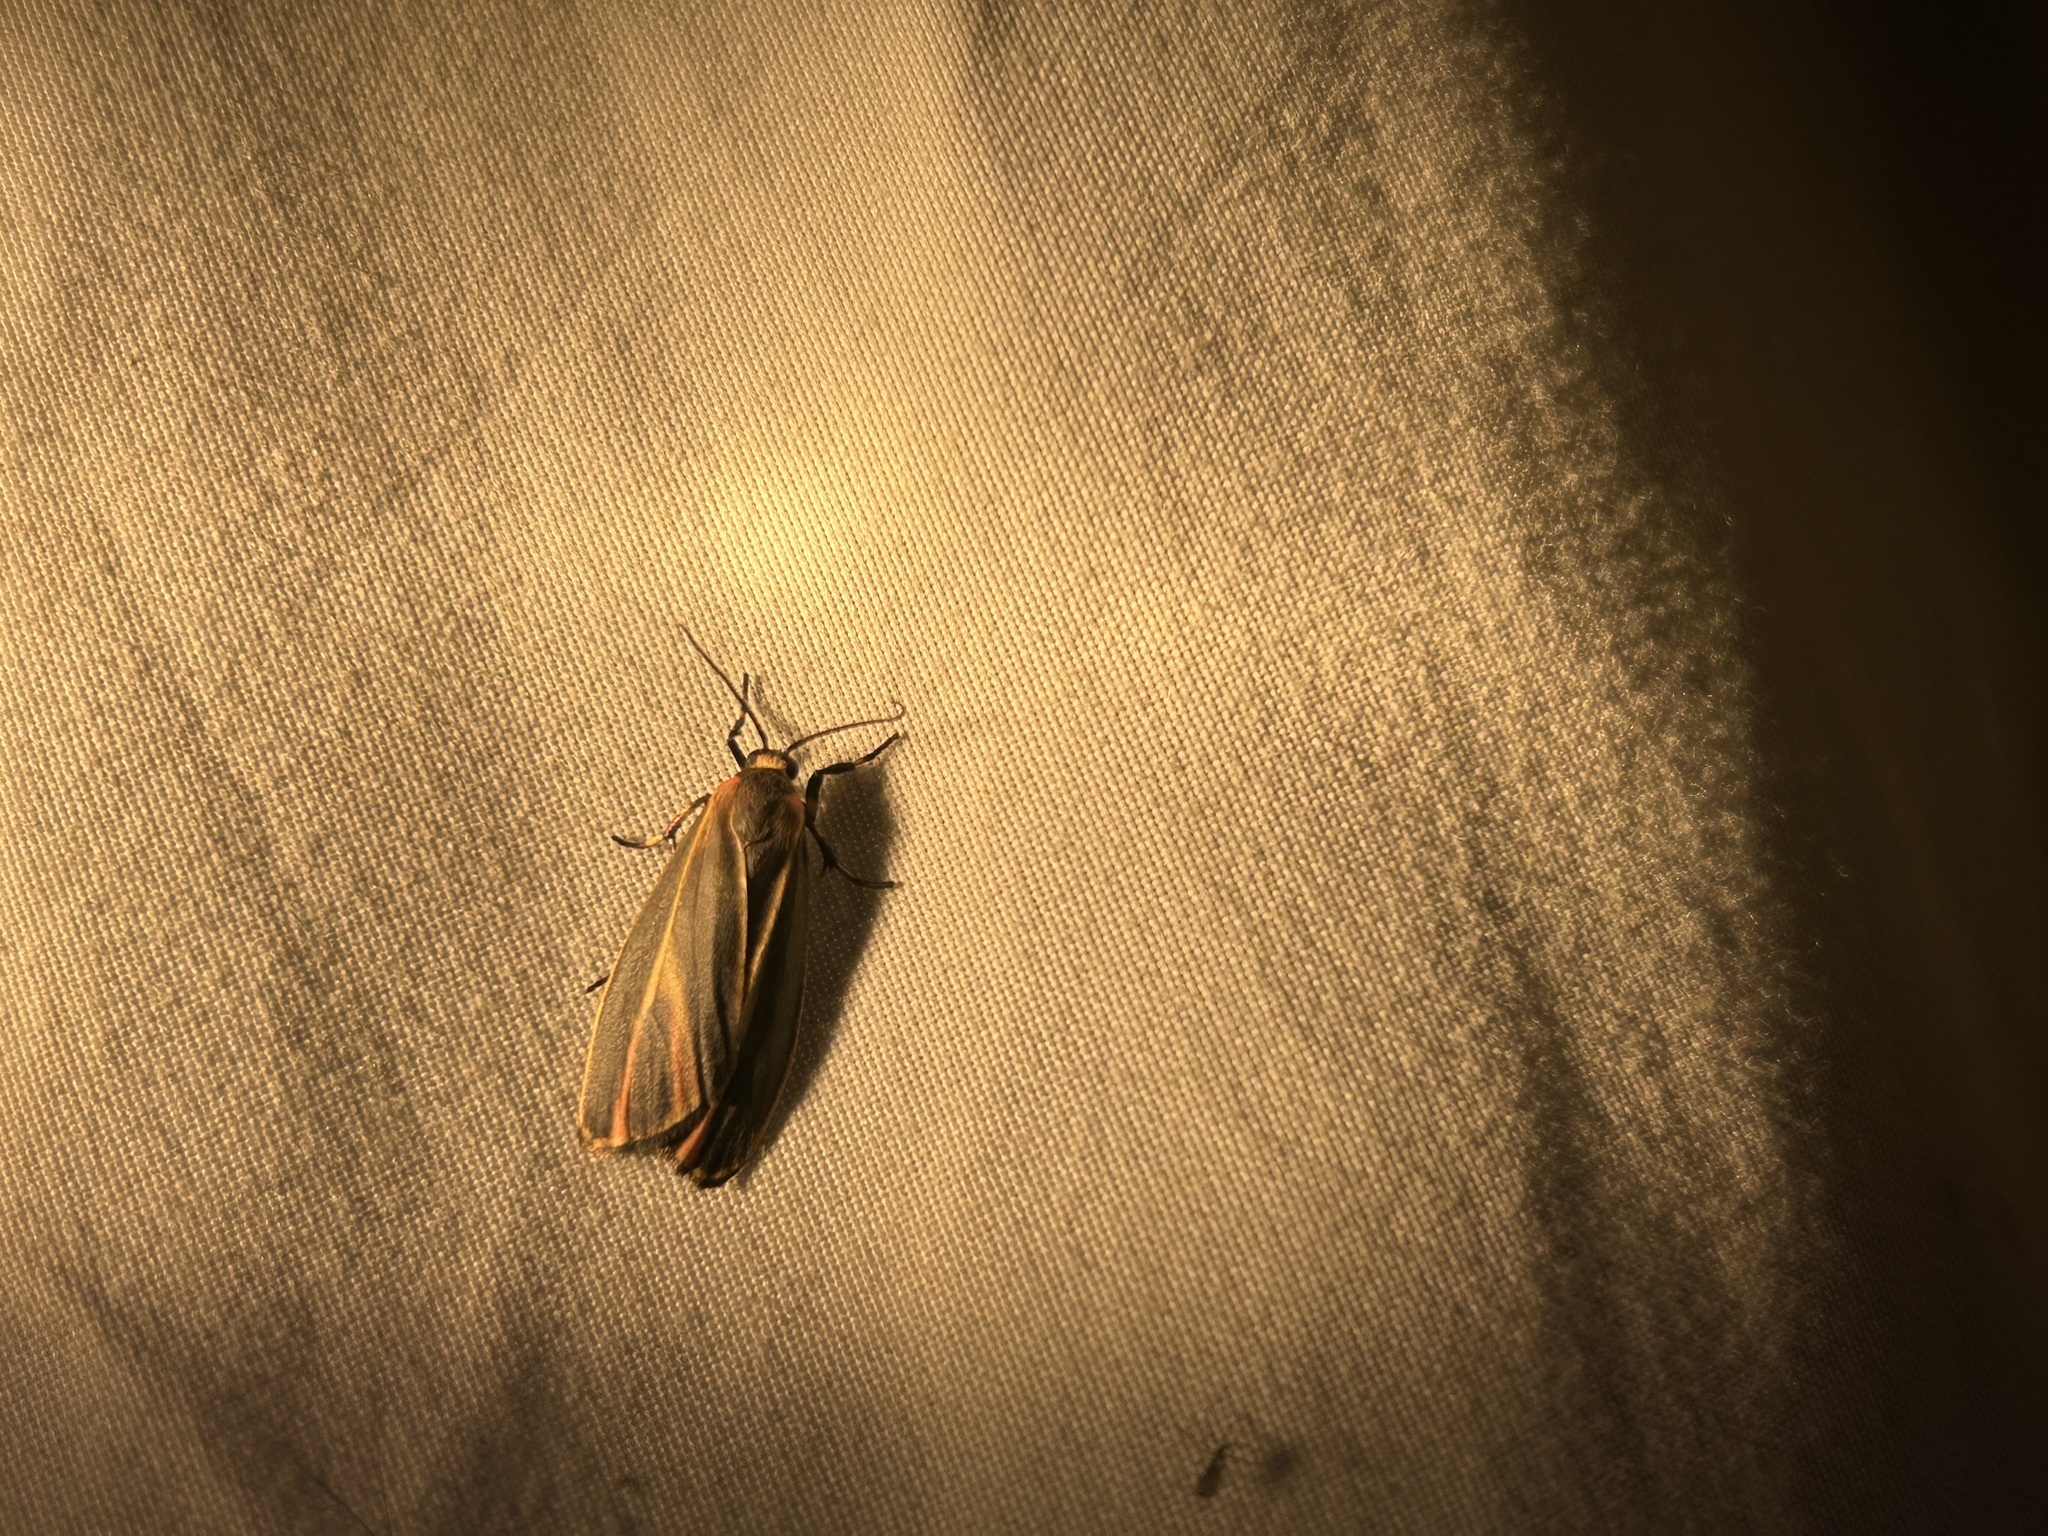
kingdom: Animalia
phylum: Arthropoda
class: Insecta
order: Lepidoptera
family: Erebidae
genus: Hypoprepia
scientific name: Hypoprepia fucosa
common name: Painted lichen moth
